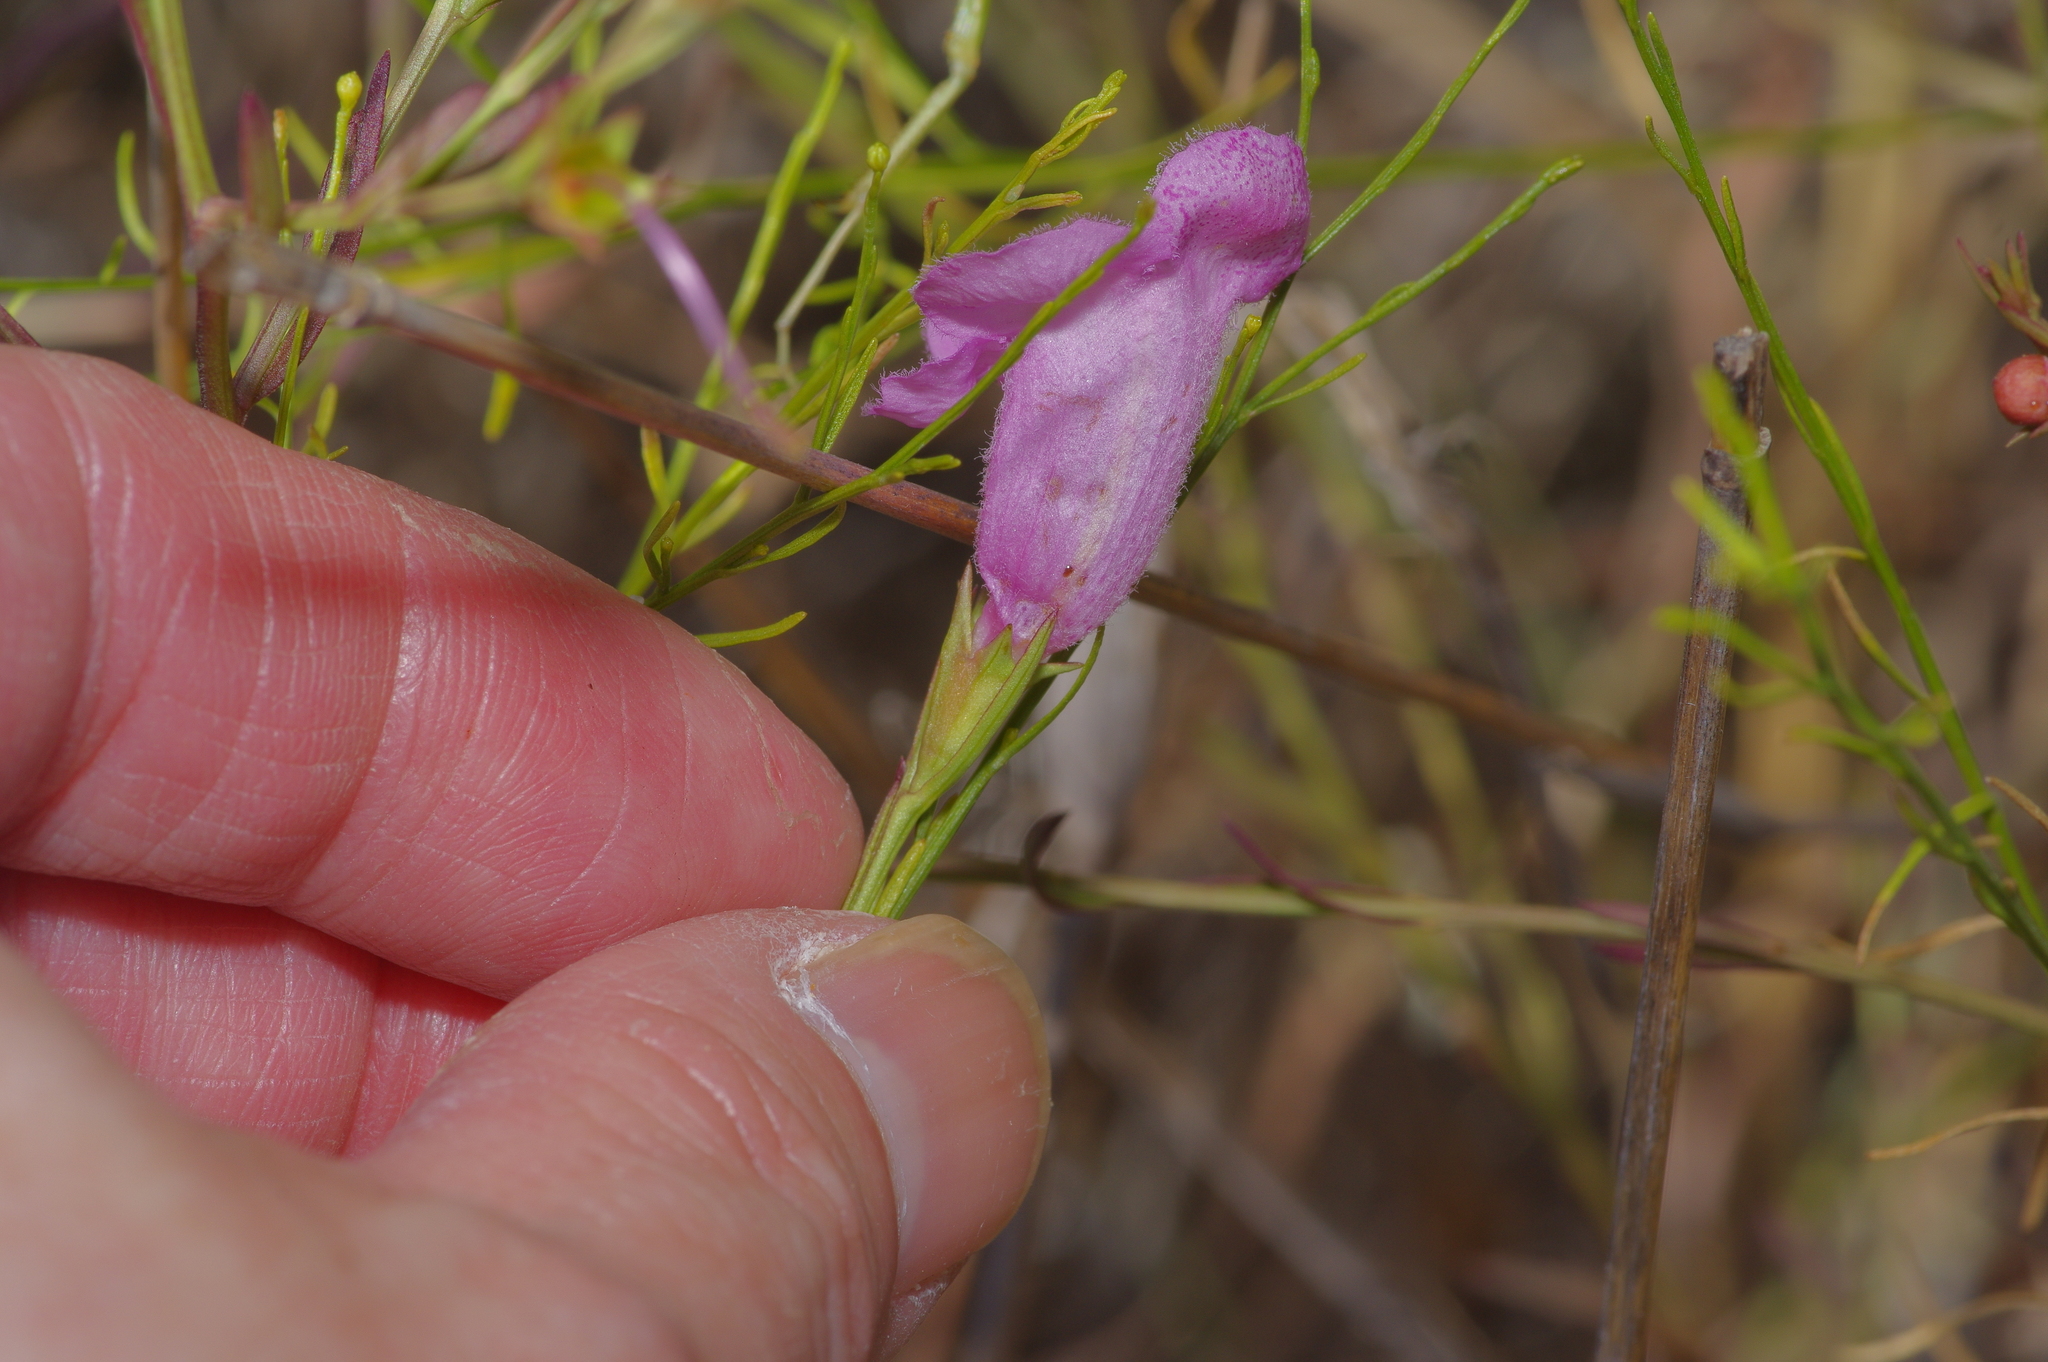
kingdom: Plantae
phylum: Tracheophyta
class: Magnoliopsida
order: Lamiales
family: Orobanchaceae
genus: Agalinis
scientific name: Agalinis heterophylla
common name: Prairie agalinis
